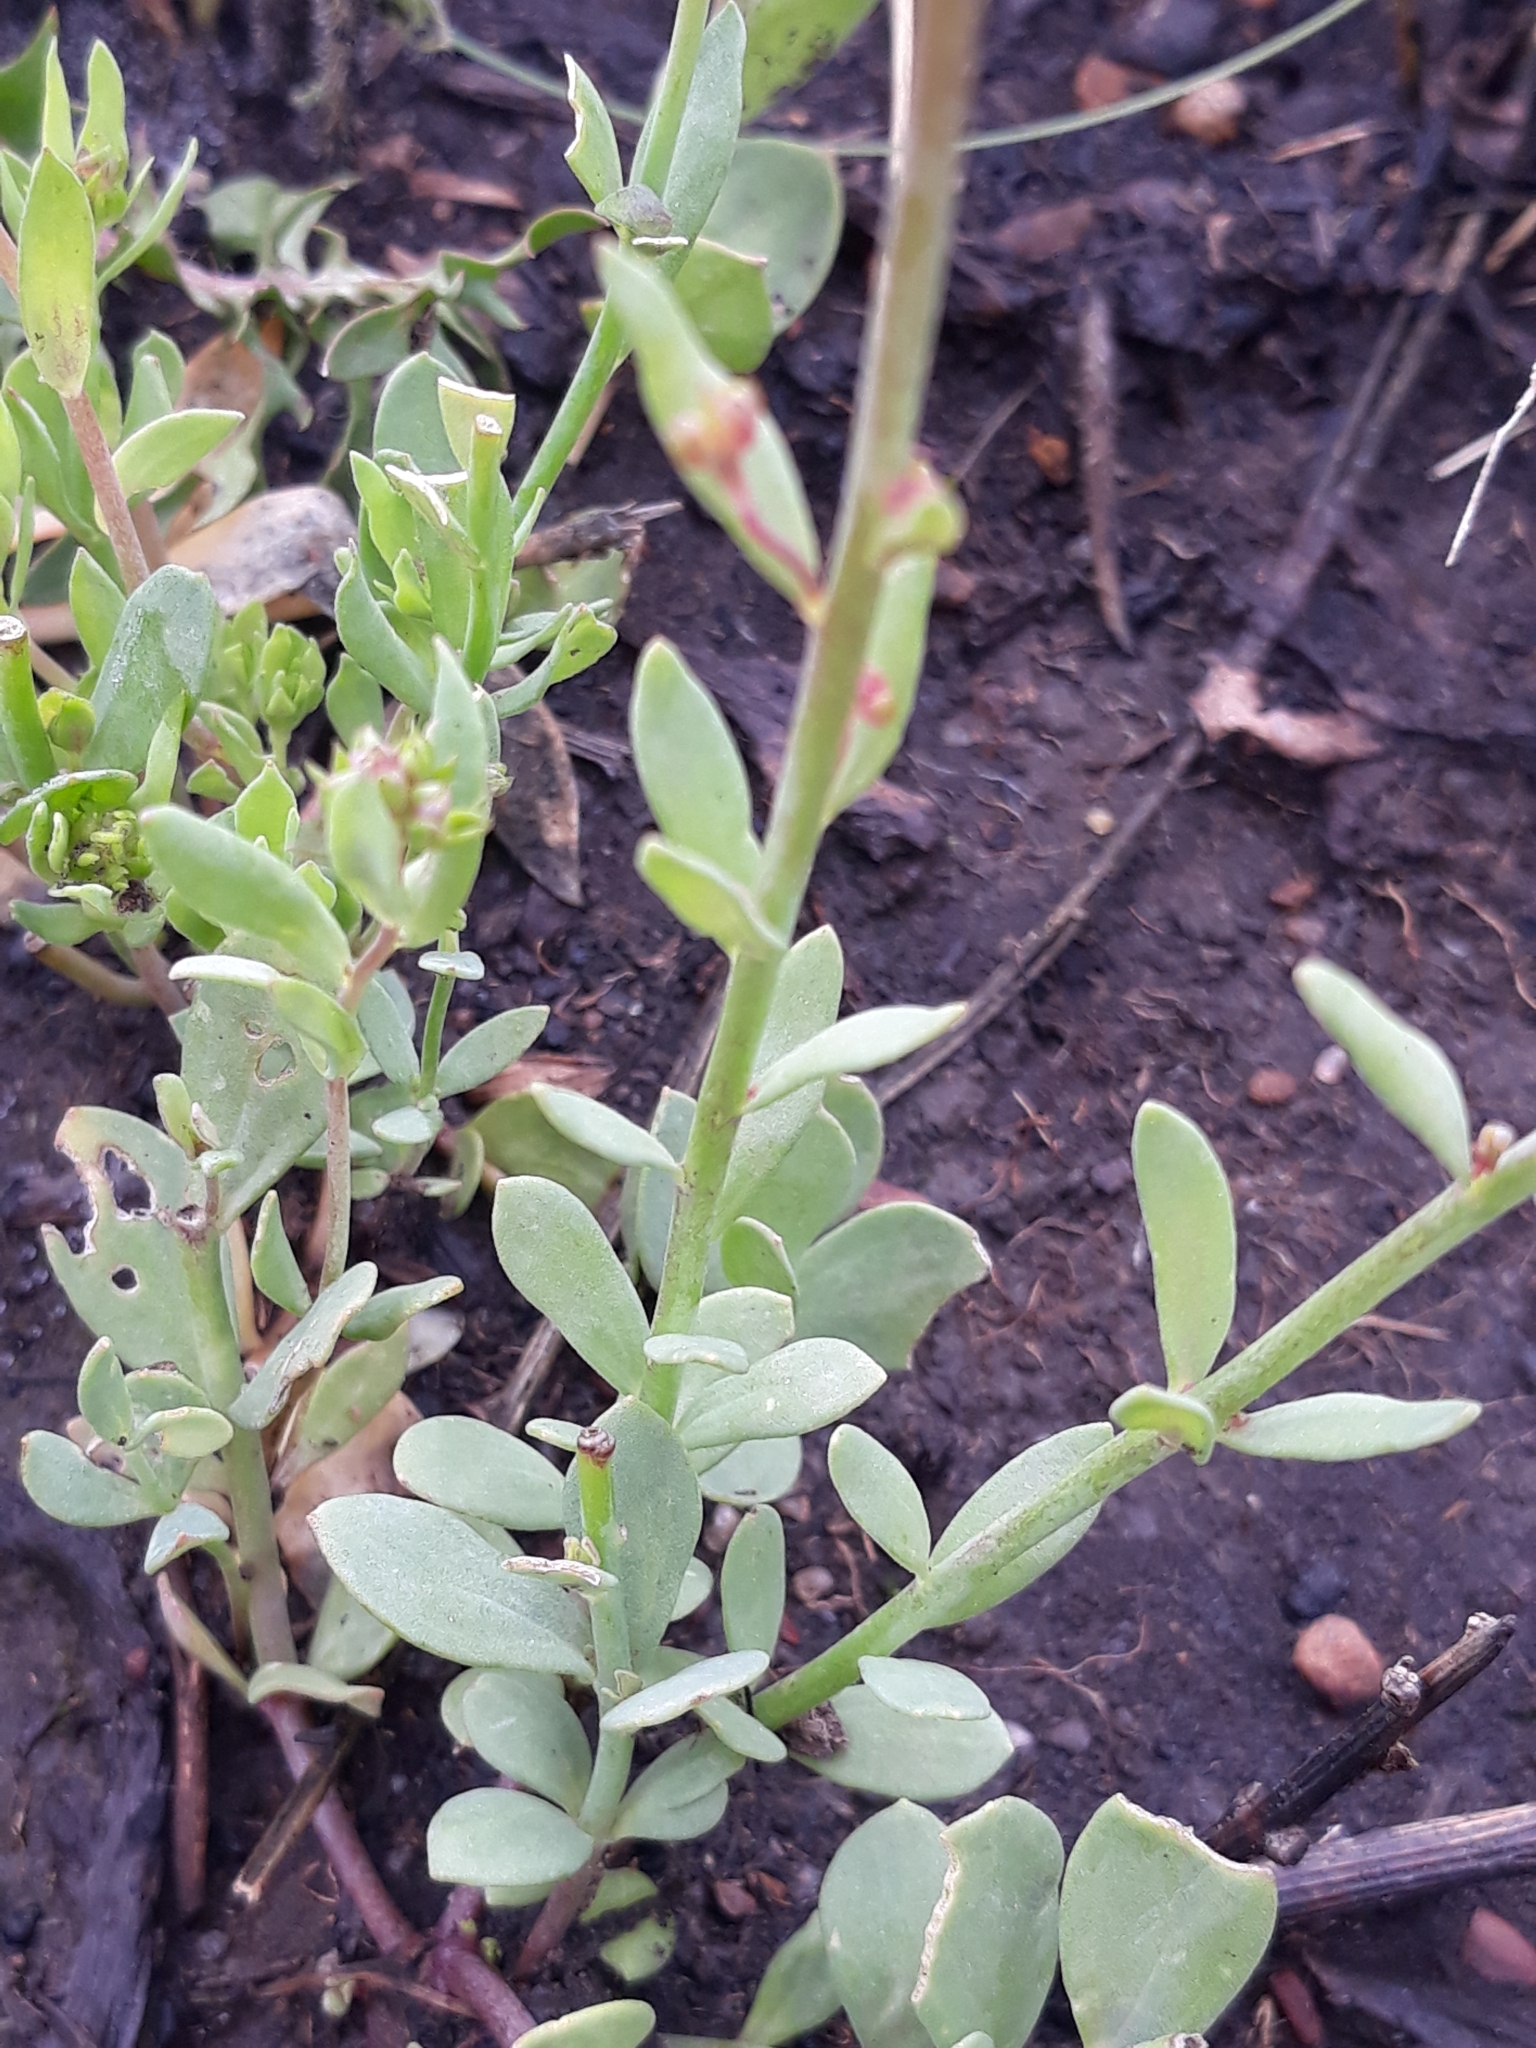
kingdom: Plantae
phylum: Tracheophyta
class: Magnoliopsida
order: Lamiales
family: Plantaginaceae
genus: Linaria
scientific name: Linaria virgata
